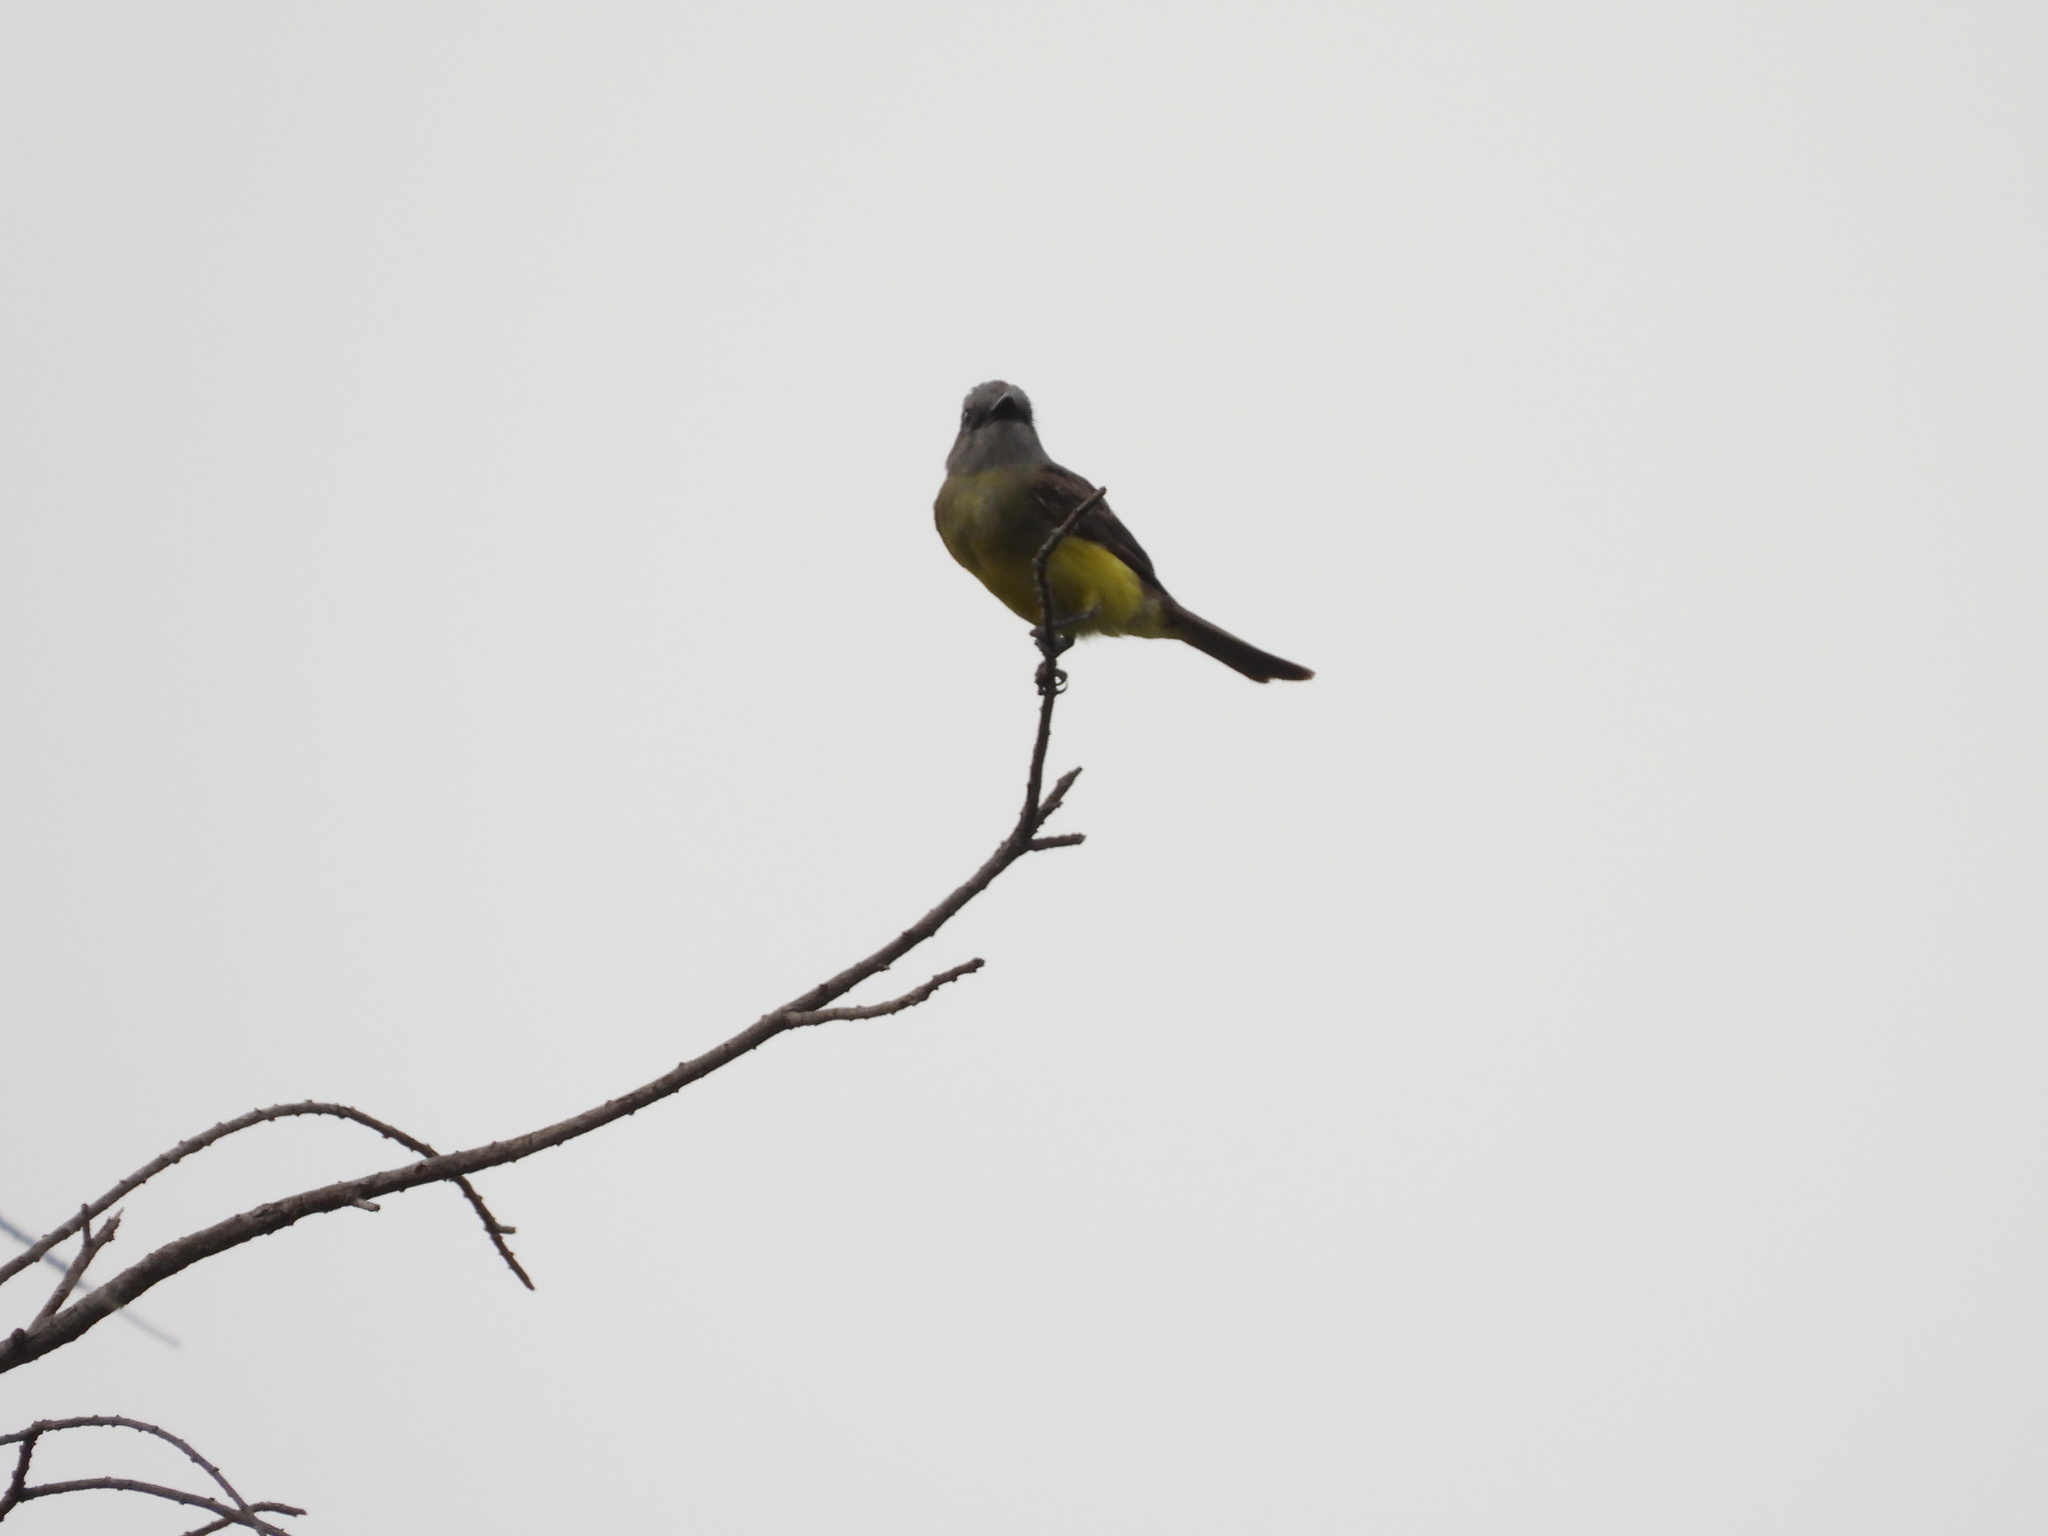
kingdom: Animalia
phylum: Chordata
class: Aves
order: Passeriformes
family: Tyrannidae
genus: Tyrannus
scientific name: Tyrannus melancholicus
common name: Tropical kingbird
